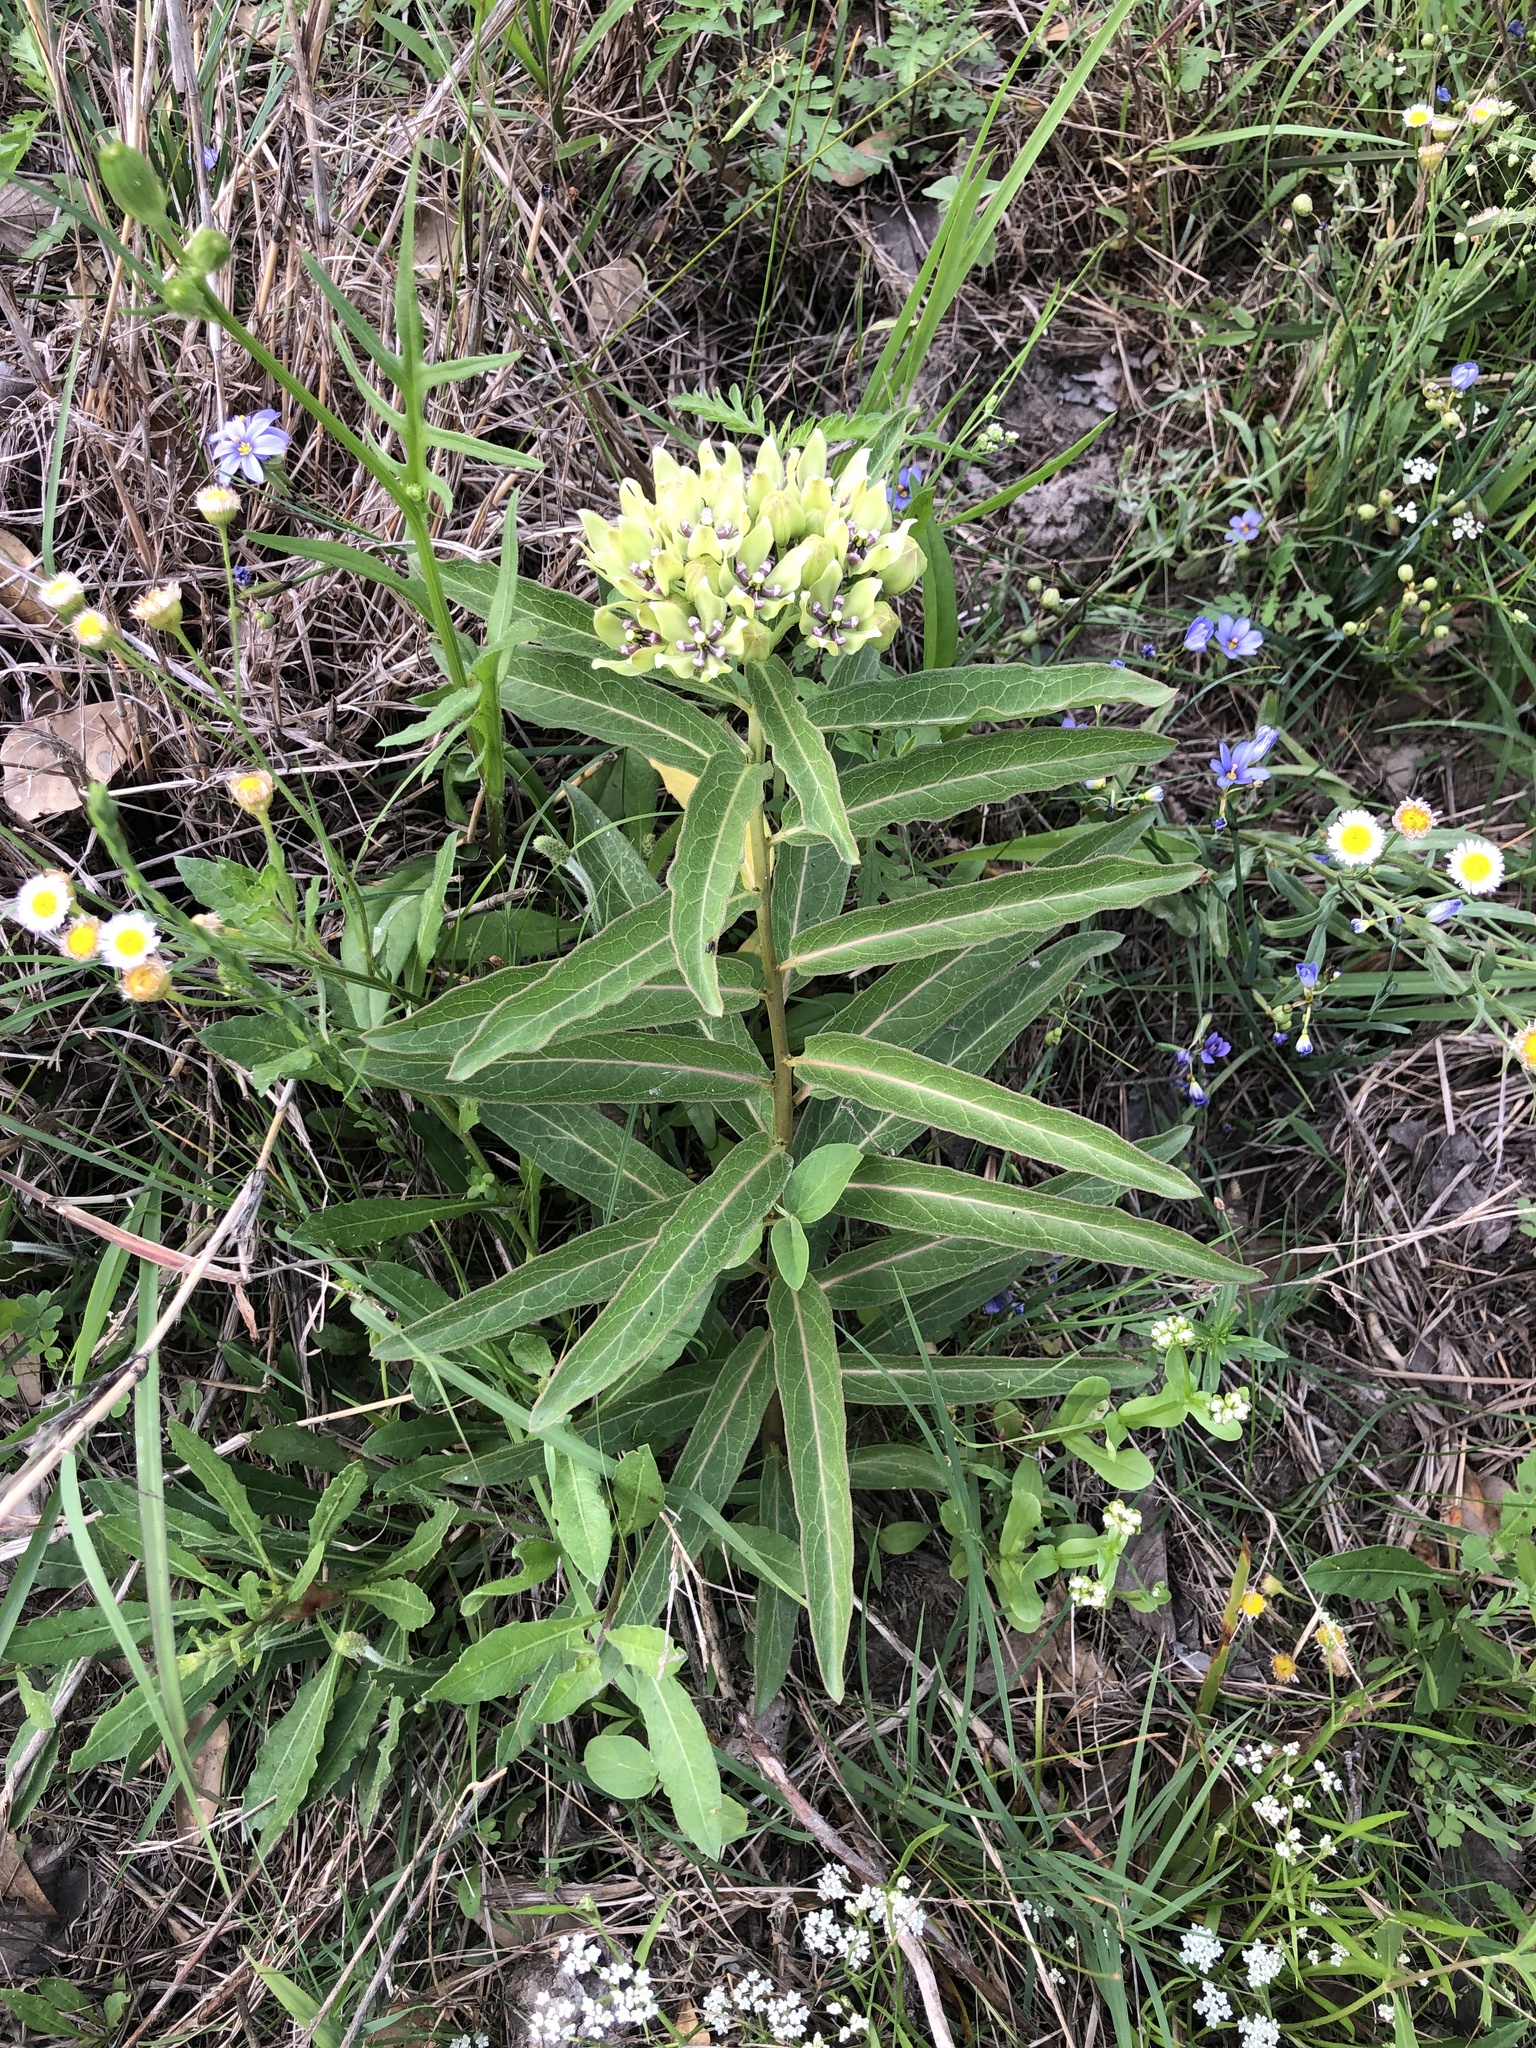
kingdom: Plantae
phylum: Tracheophyta
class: Magnoliopsida
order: Gentianales
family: Apocynaceae
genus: Asclepias
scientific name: Asclepias viridis
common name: Antelope-horns
